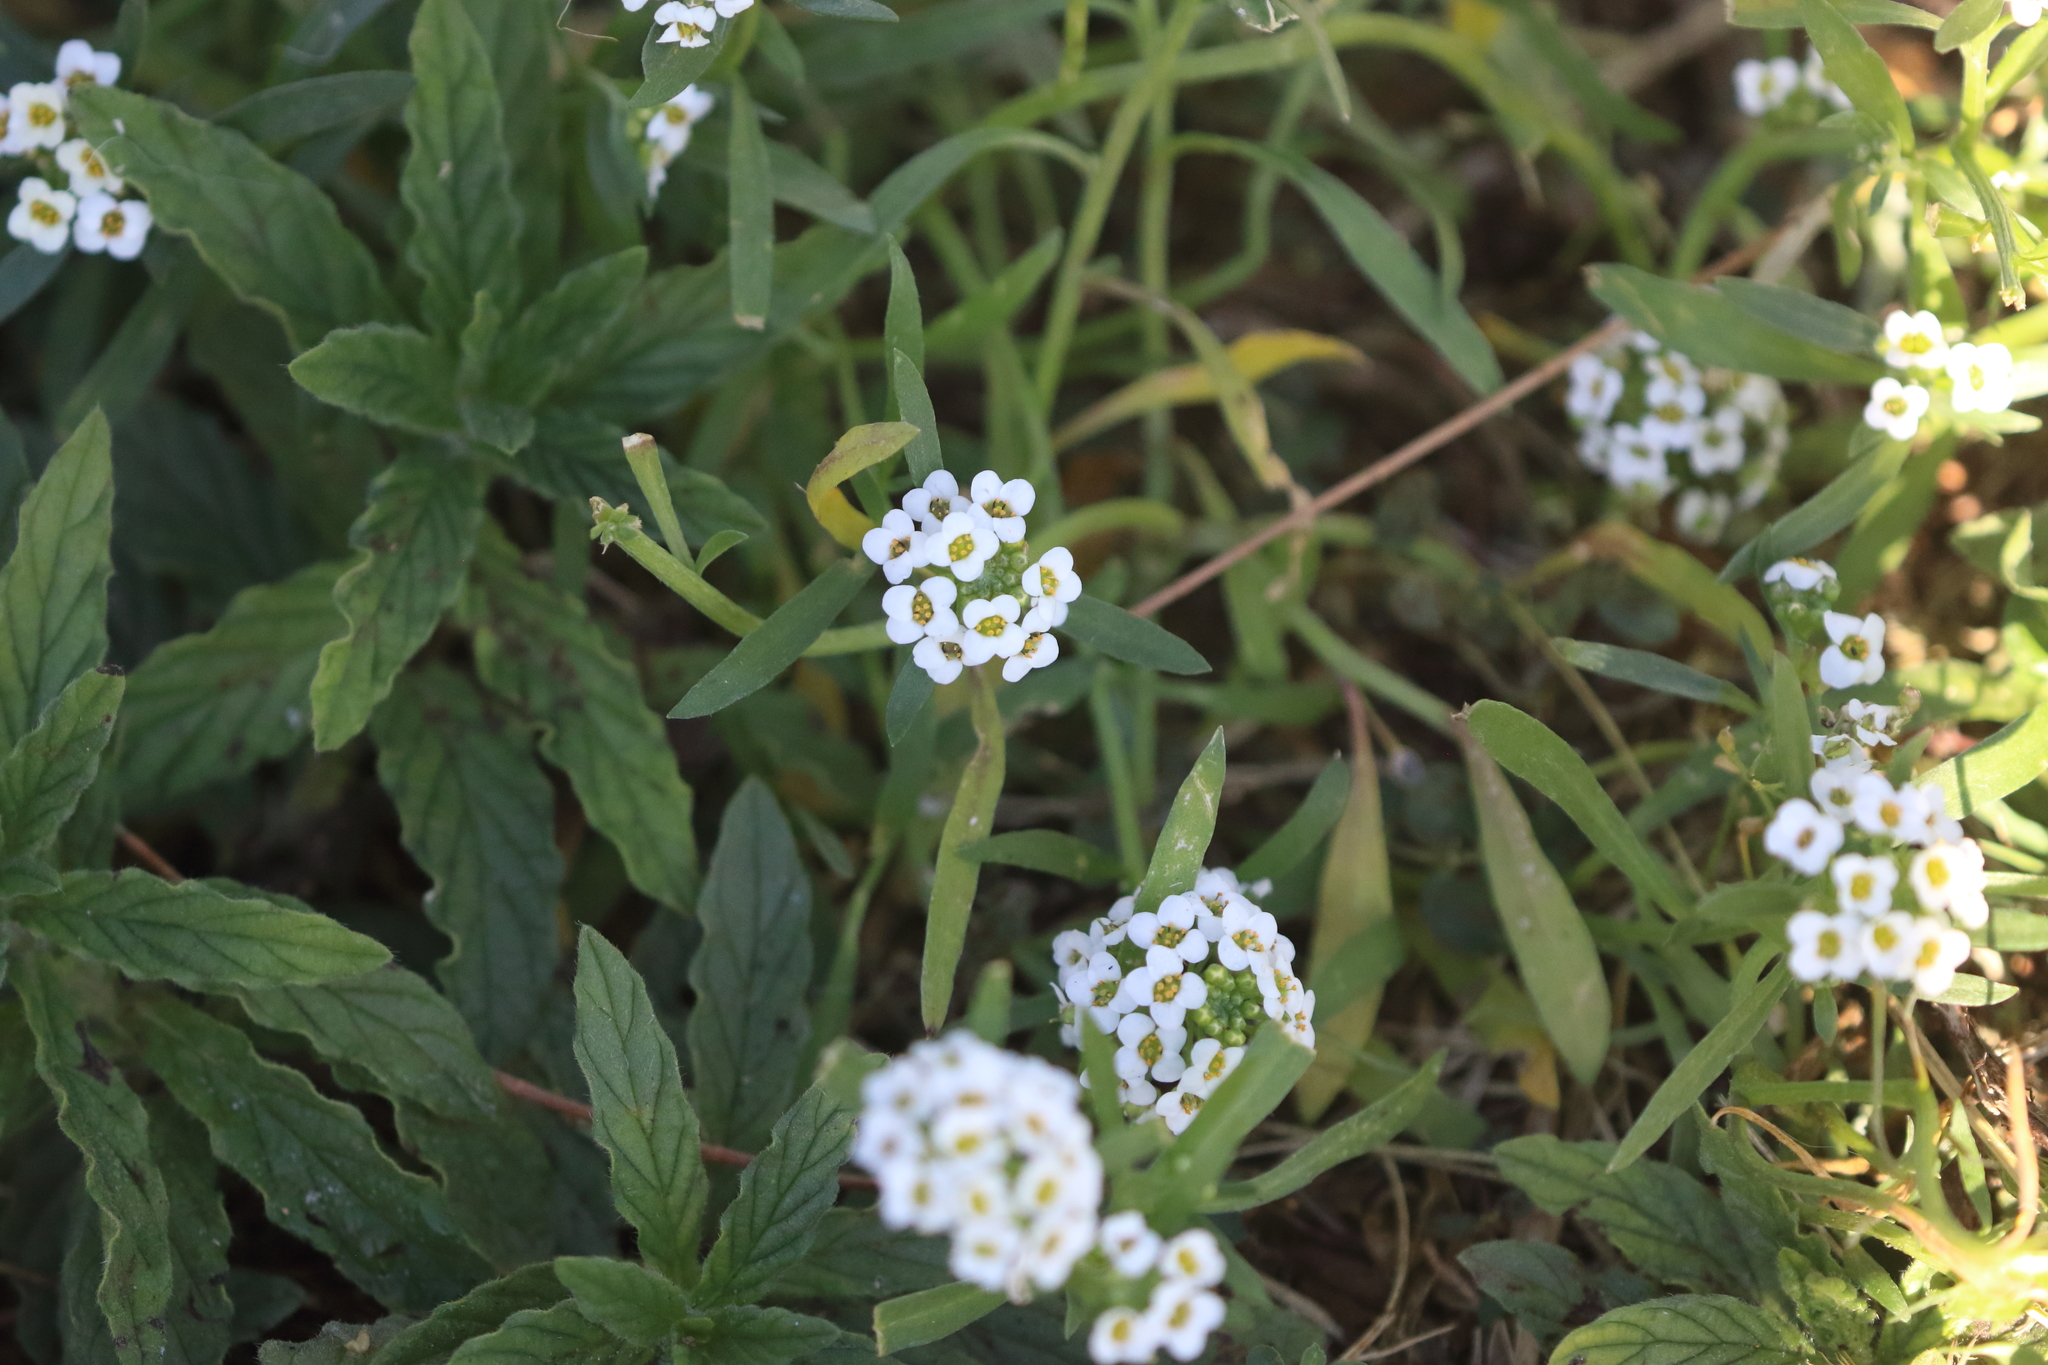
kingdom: Plantae
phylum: Tracheophyta
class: Magnoliopsida
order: Brassicales
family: Brassicaceae
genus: Lobularia
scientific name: Lobularia maritima
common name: Sweet alison
